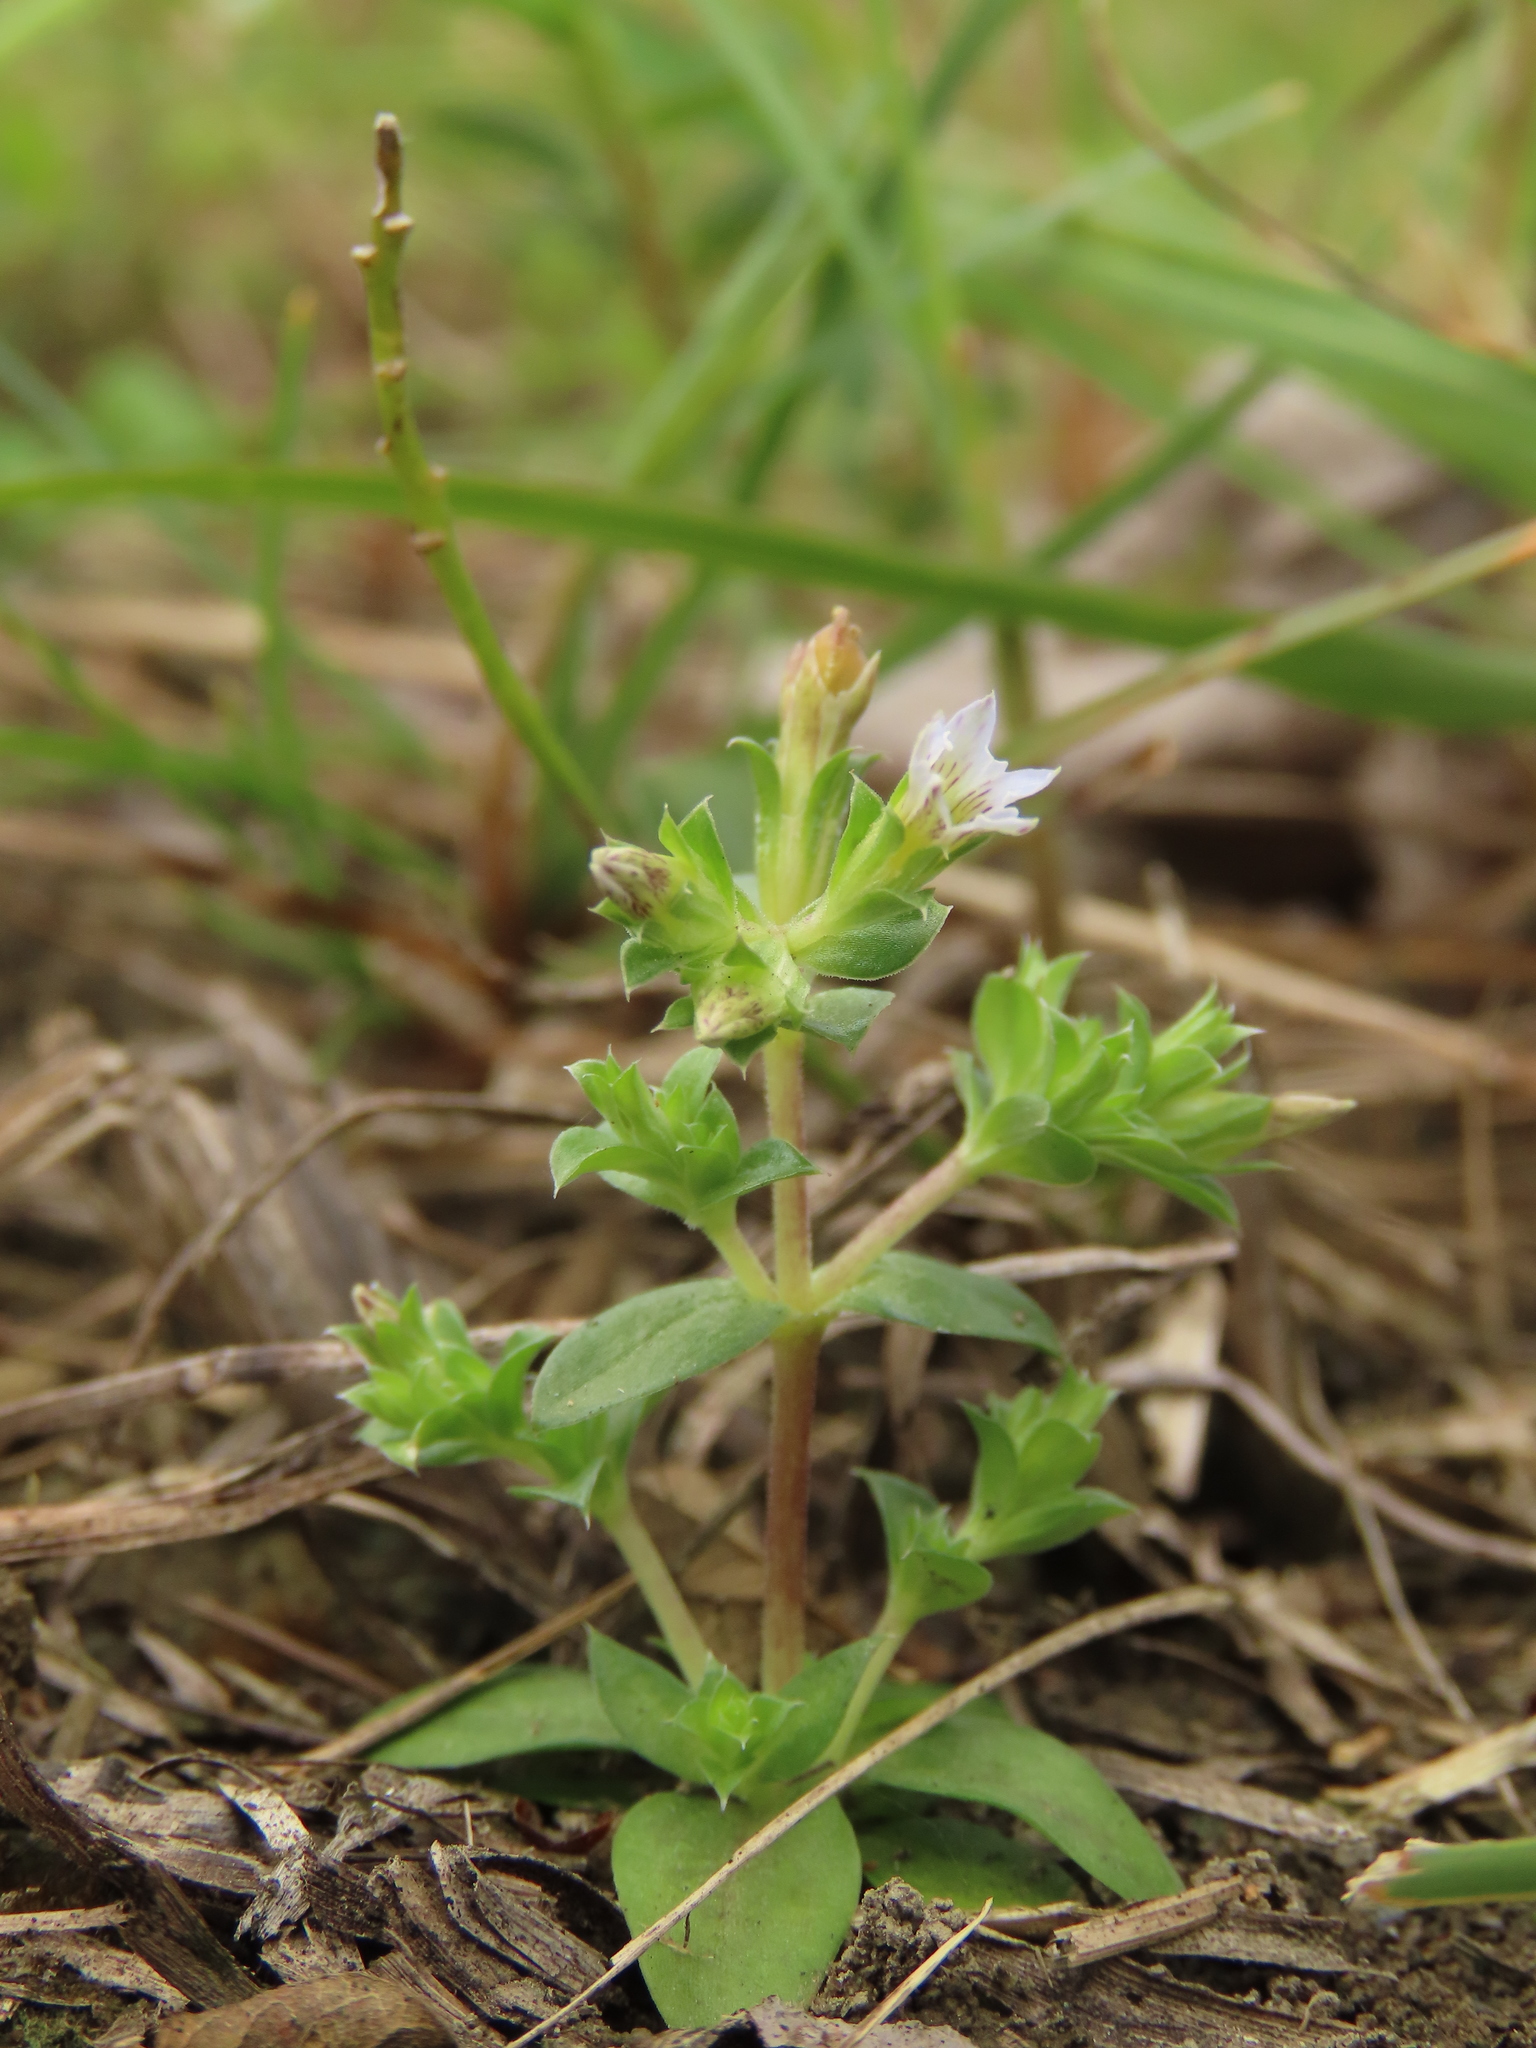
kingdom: Plantae
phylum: Tracheophyta
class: Magnoliopsida
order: Gentianales
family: Gentianaceae
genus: Gentiana
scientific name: Gentiana yokusai
